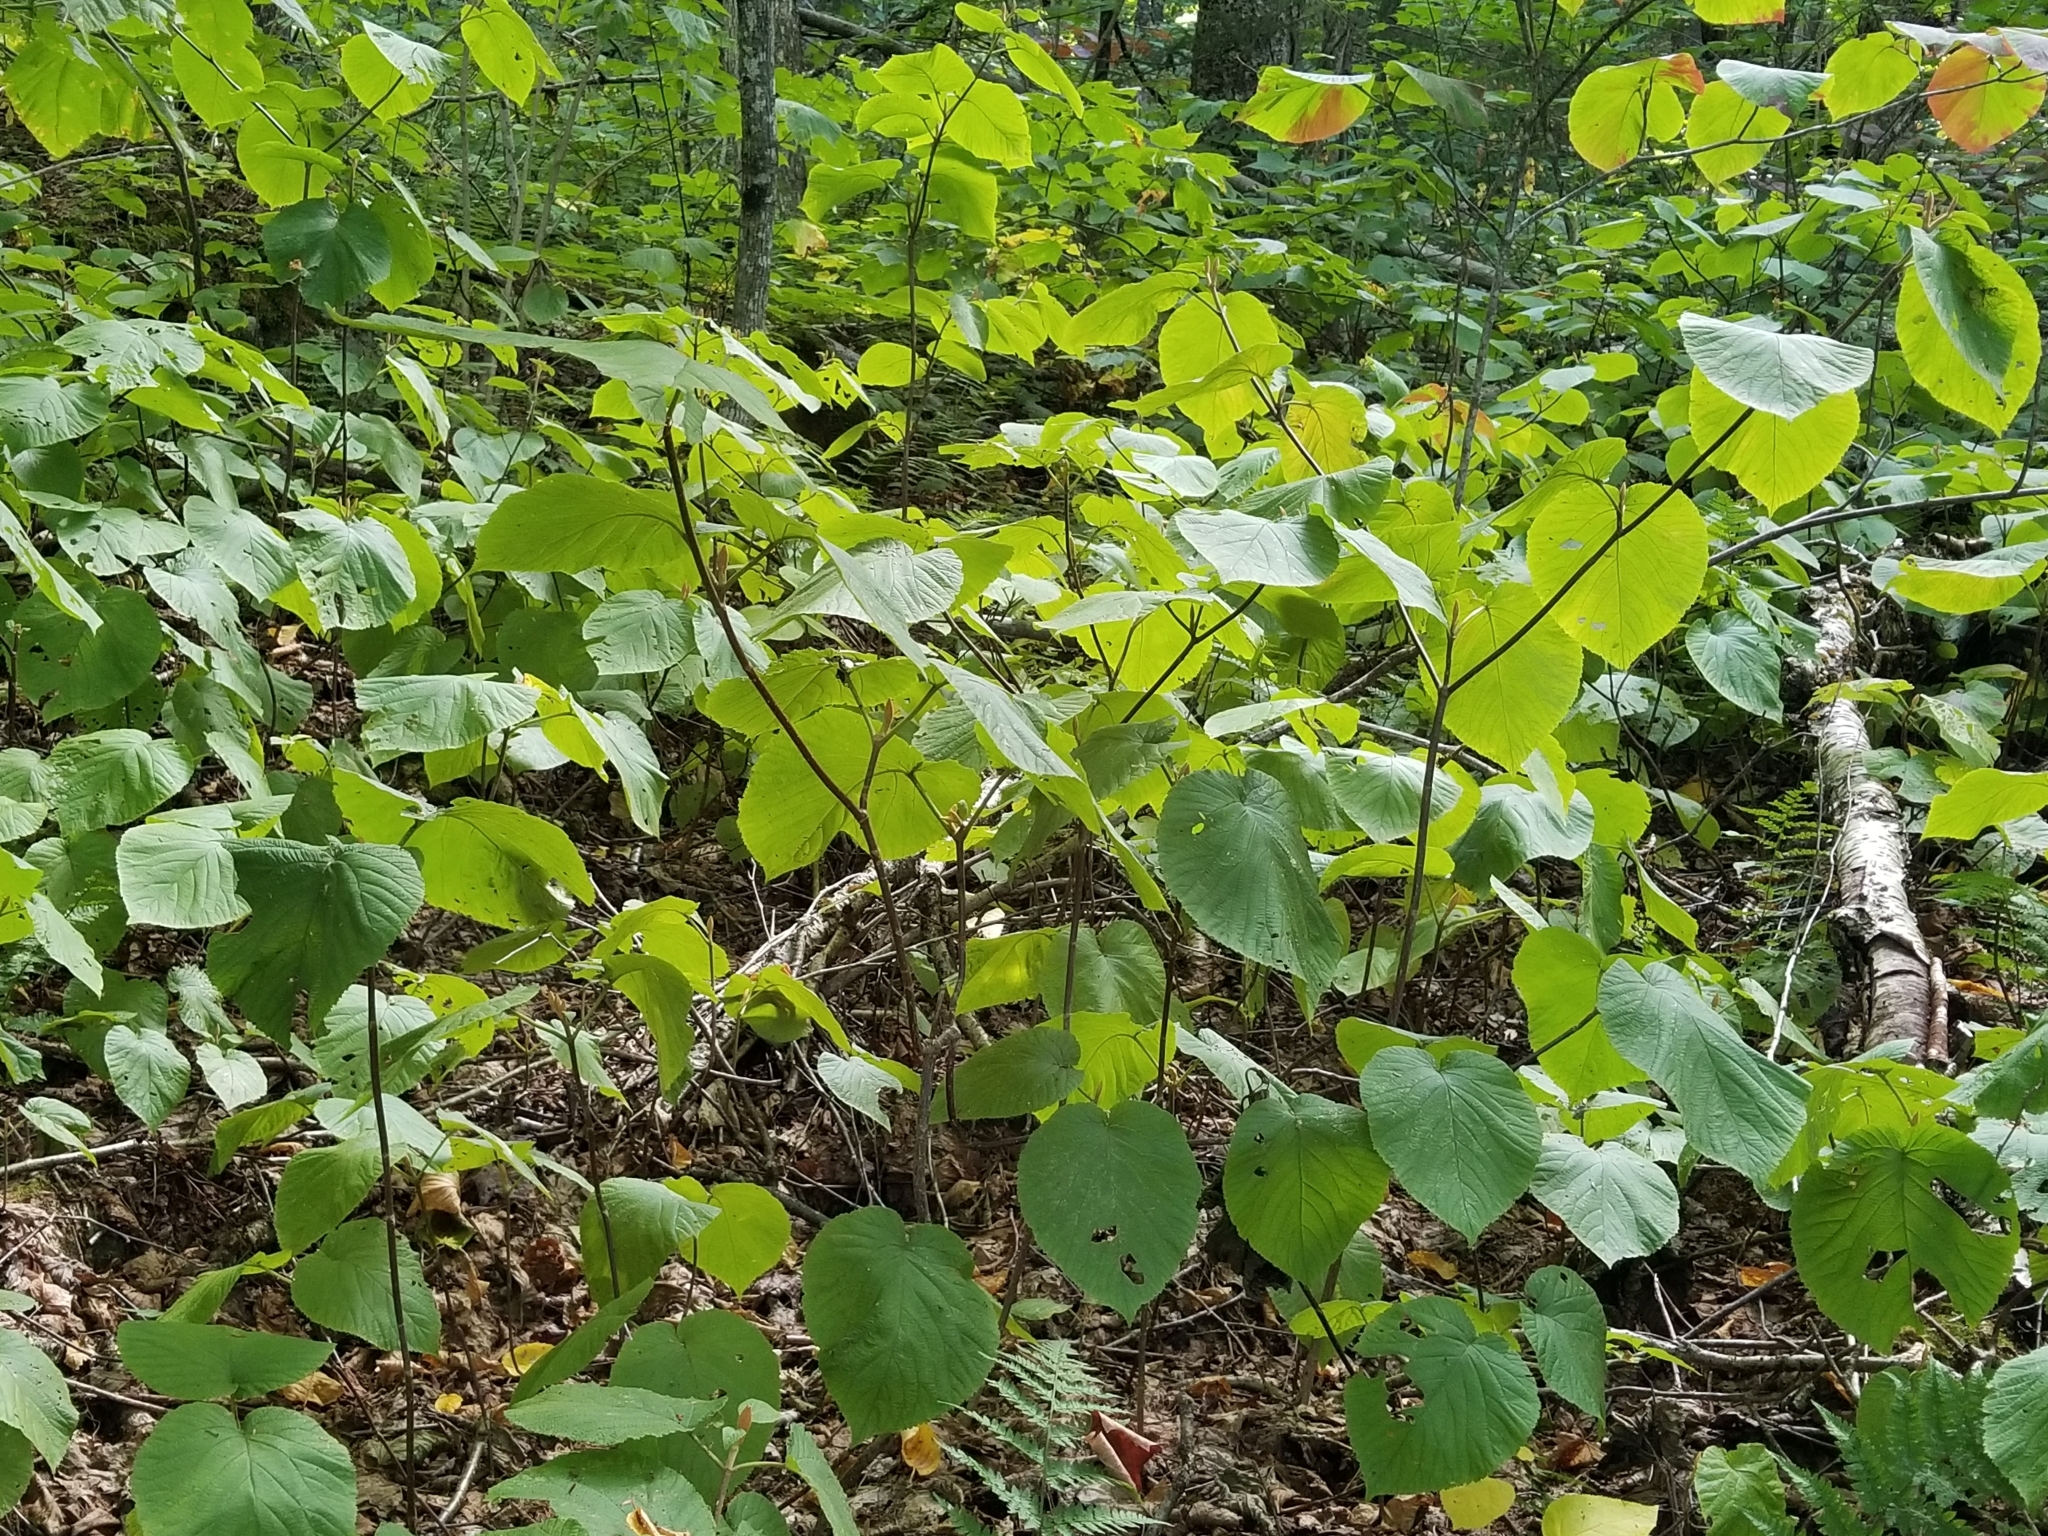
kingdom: Plantae
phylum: Tracheophyta
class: Magnoliopsida
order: Dipsacales
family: Viburnaceae
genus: Viburnum
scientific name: Viburnum lantanoides
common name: Hobblebush
